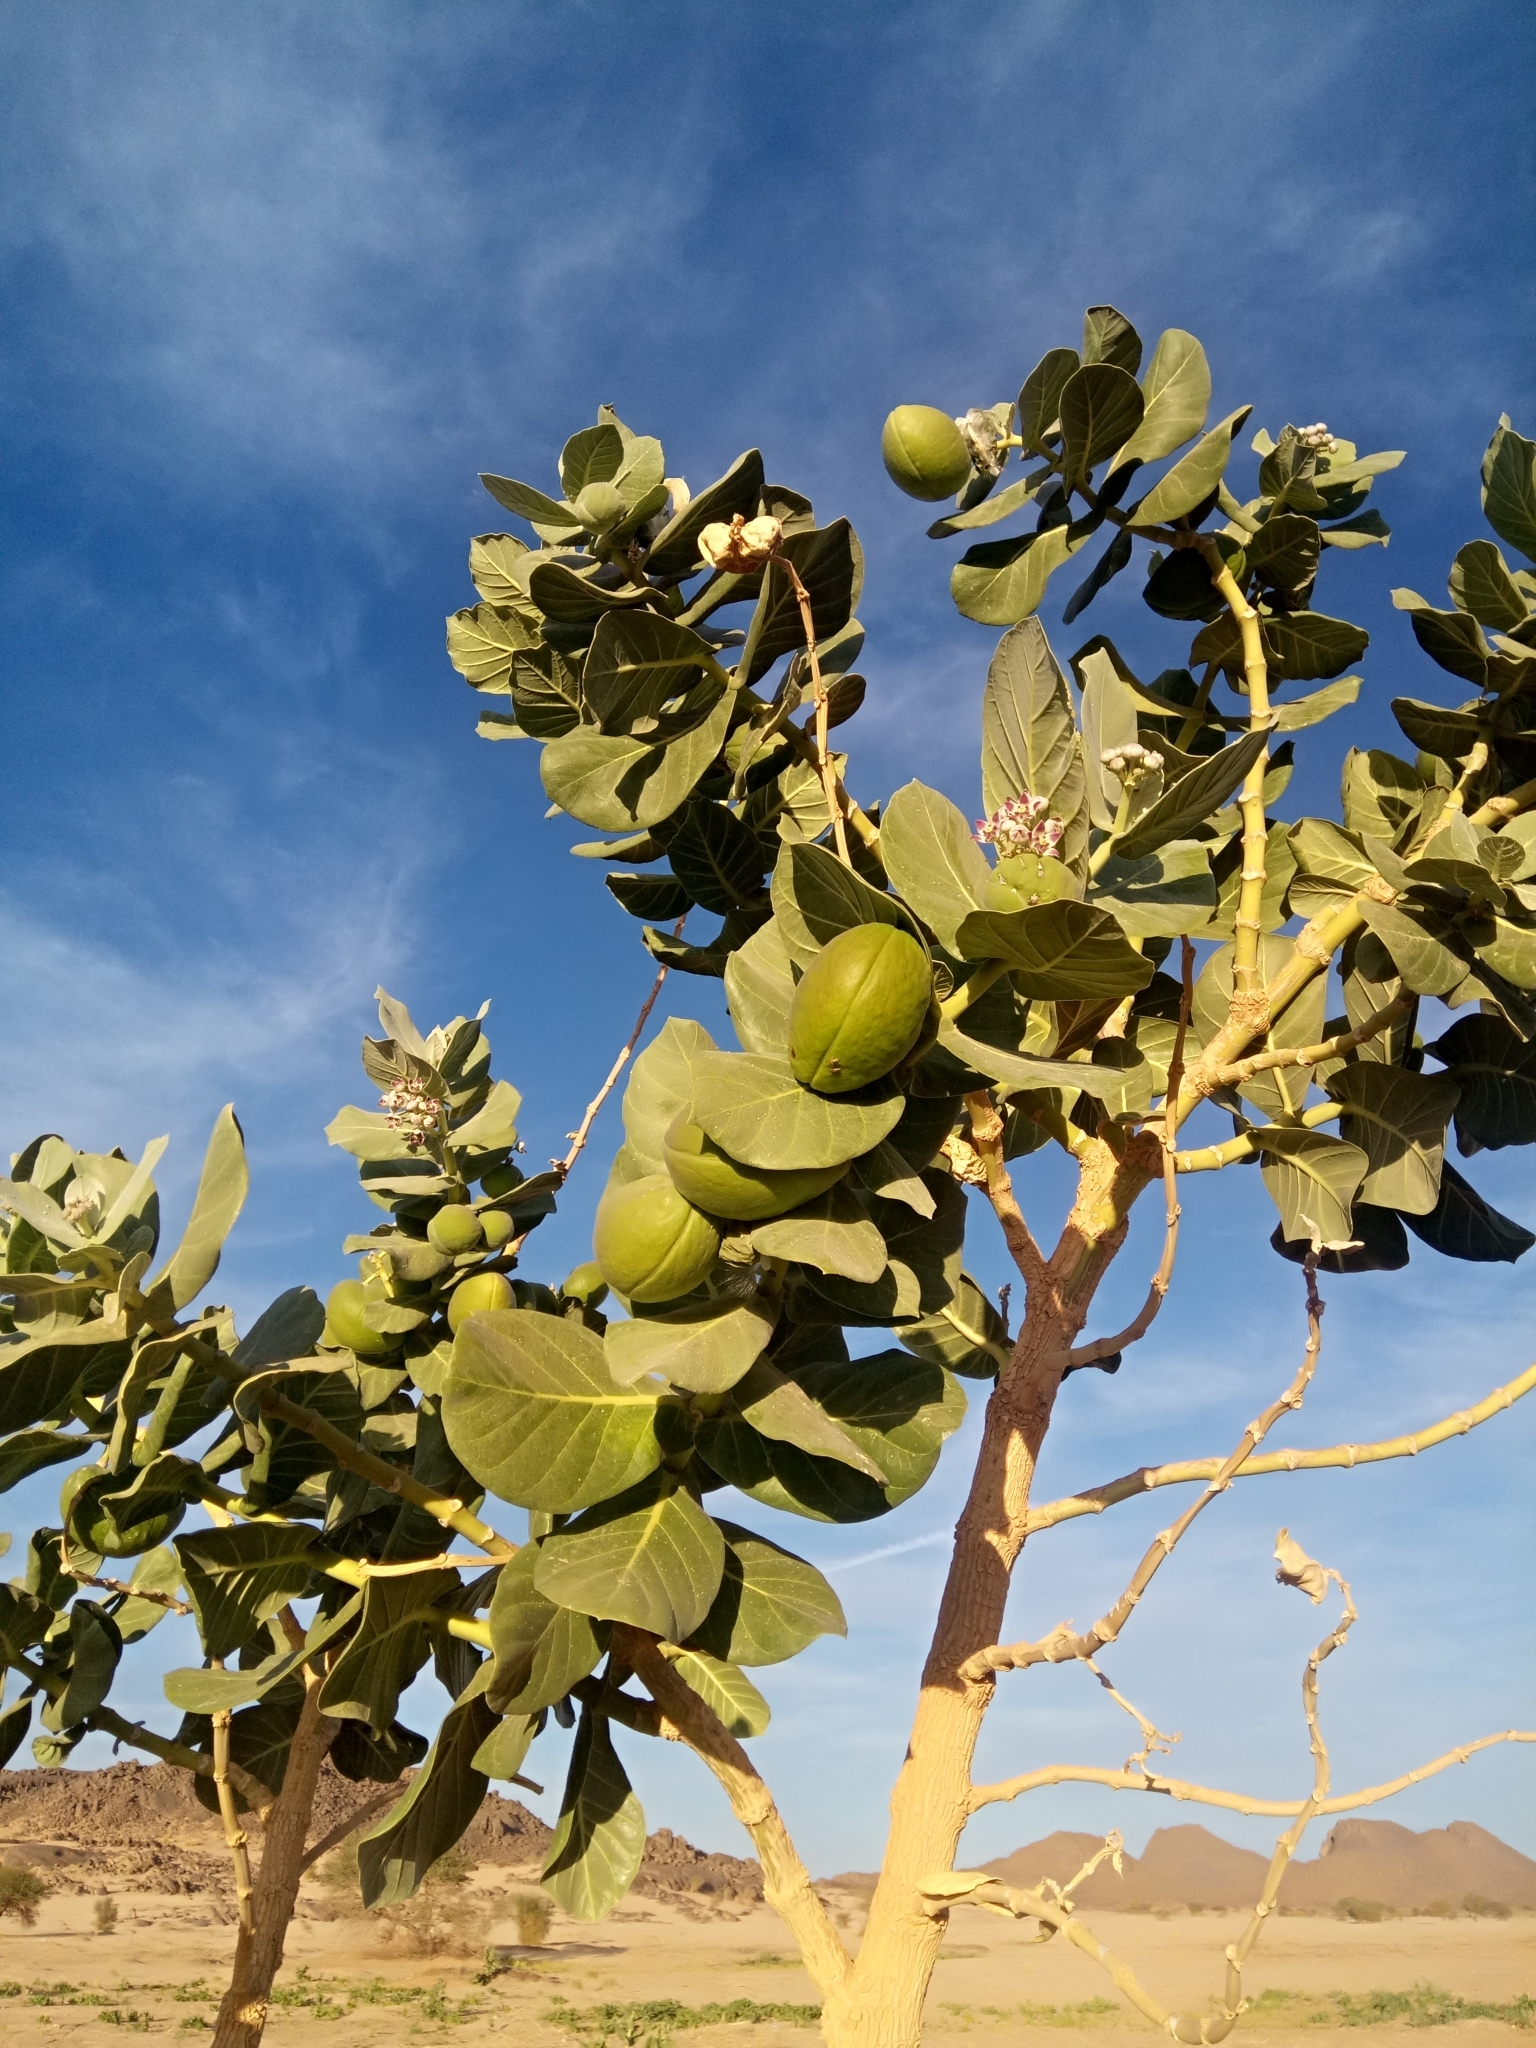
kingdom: Plantae
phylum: Tracheophyta
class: Magnoliopsida
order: Gentianales
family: Apocynaceae
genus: Calotropis
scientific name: Calotropis procera
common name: Roostertree
